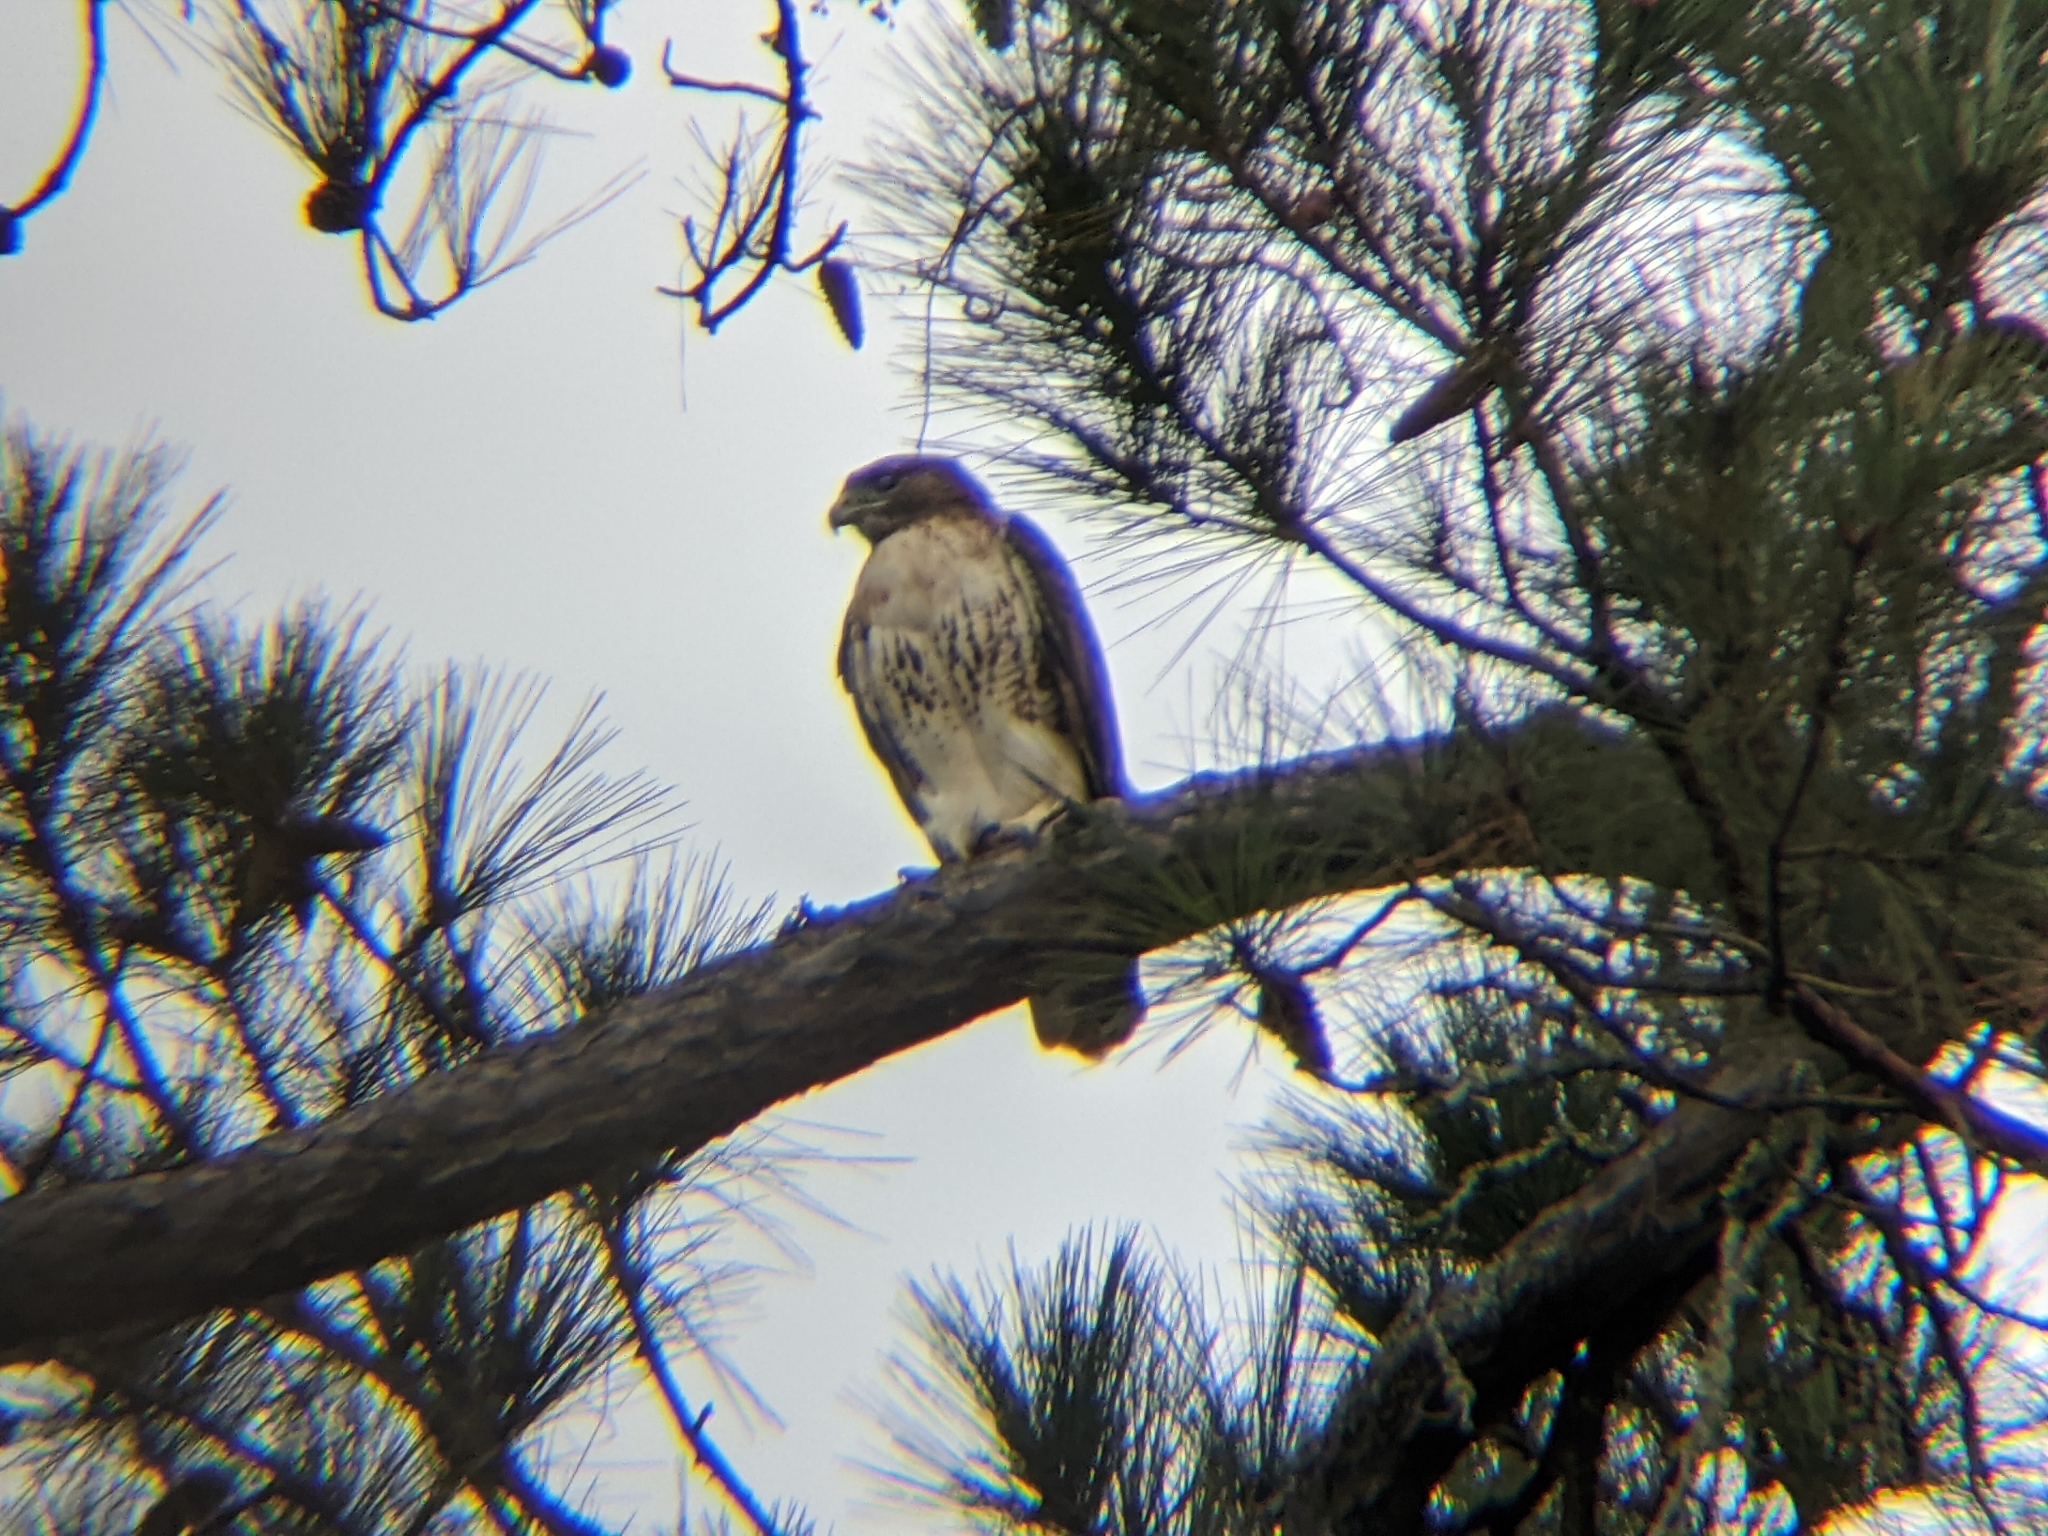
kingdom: Animalia
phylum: Chordata
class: Aves
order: Accipitriformes
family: Accipitridae
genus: Buteo
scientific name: Buteo jamaicensis
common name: Red-tailed hawk
